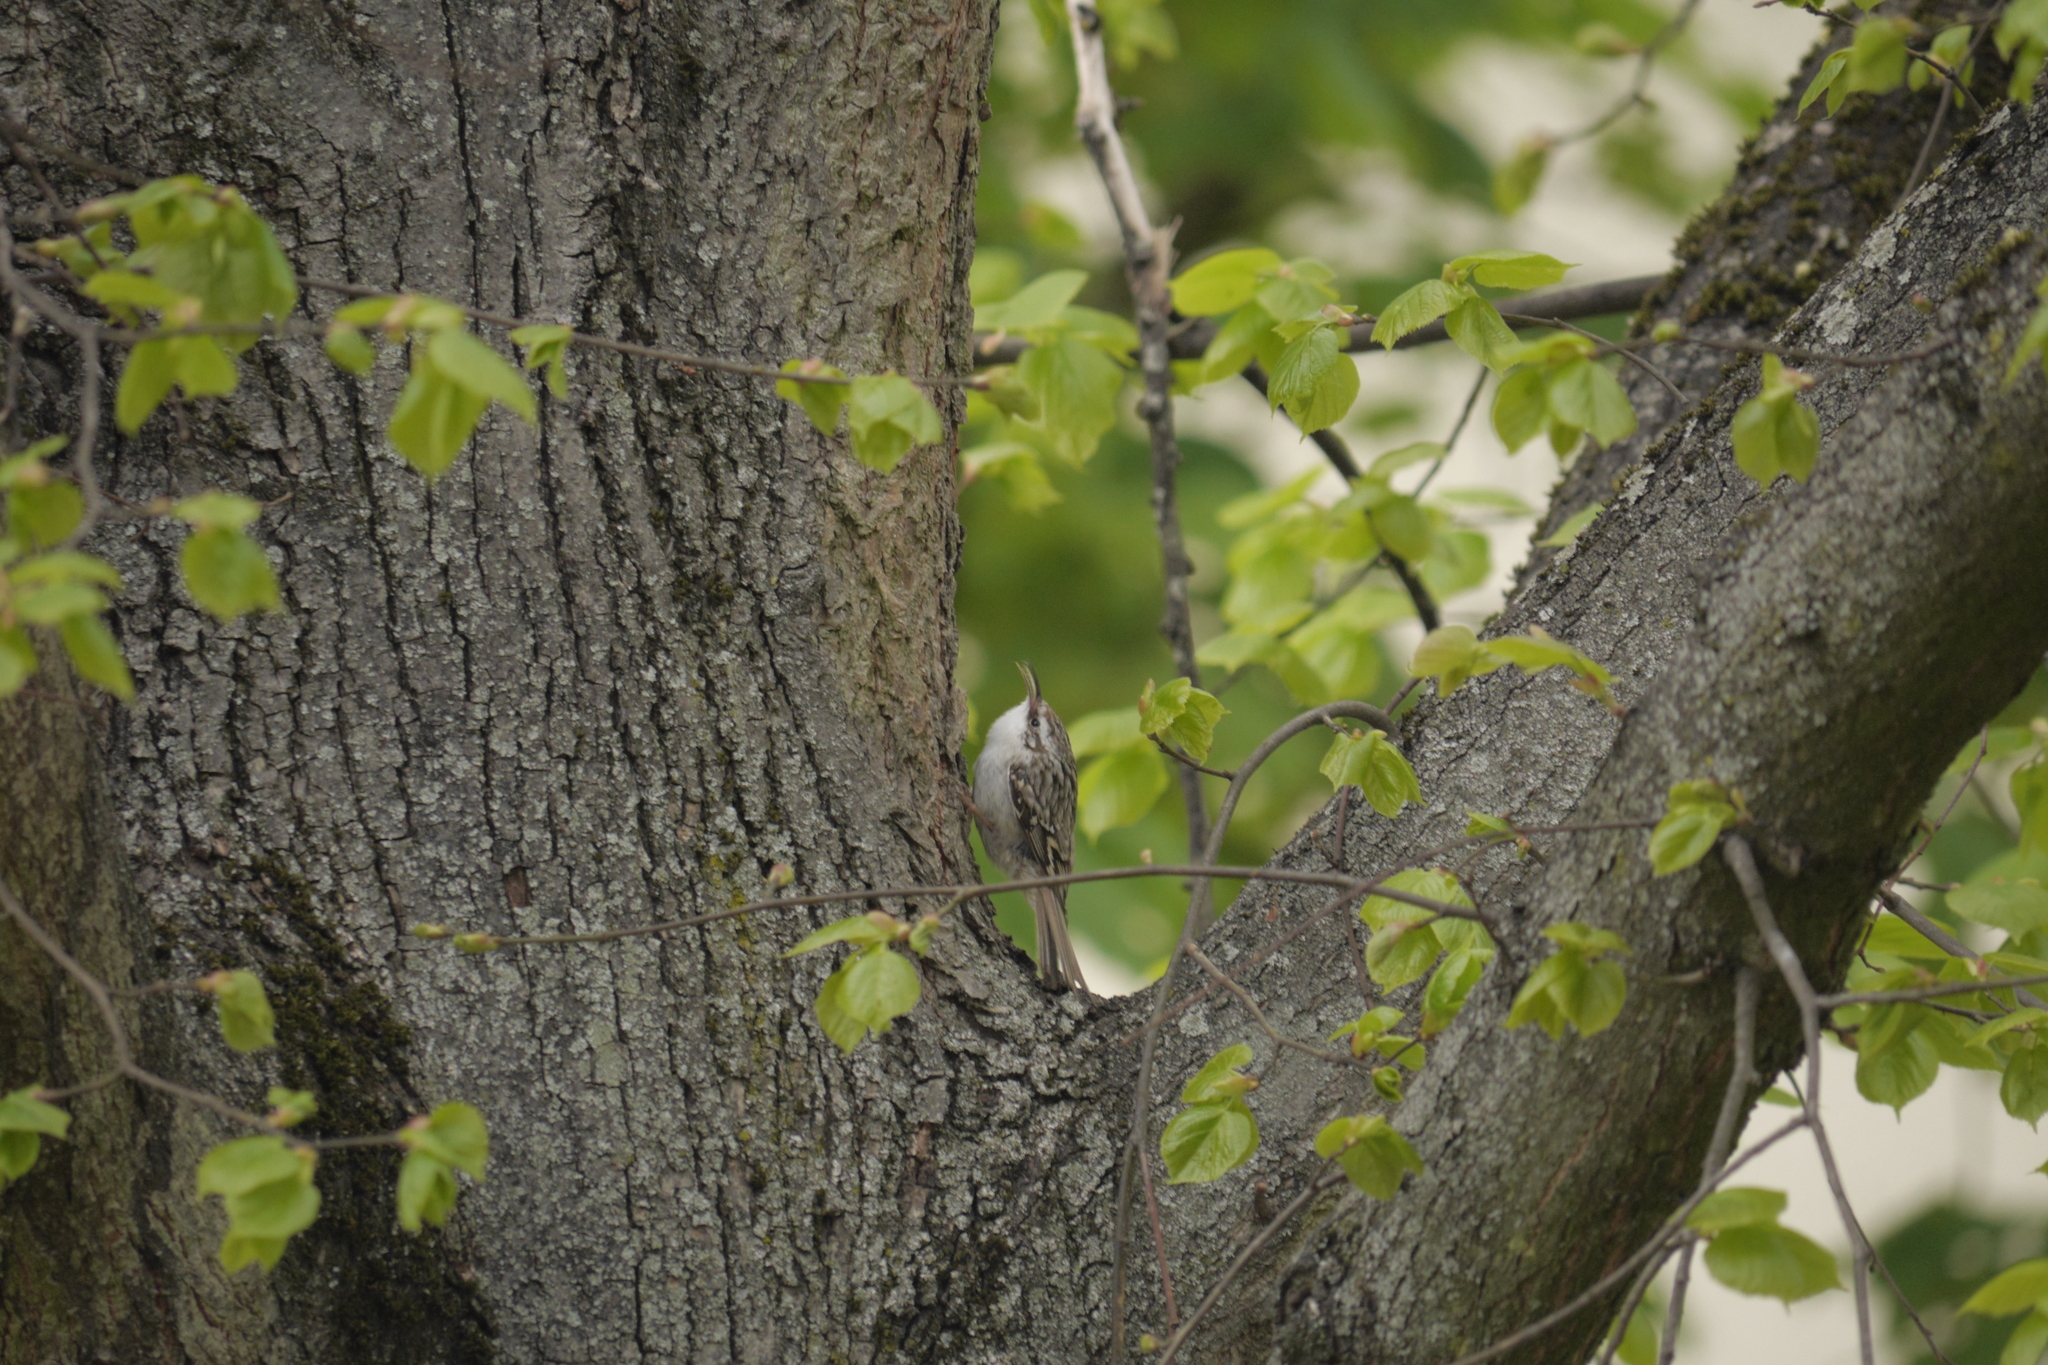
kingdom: Animalia
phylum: Chordata
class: Aves
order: Passeriformes
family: Certhiidae
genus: Certhia
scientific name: Certhia brachydactyla
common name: Short-toed treecreeper
